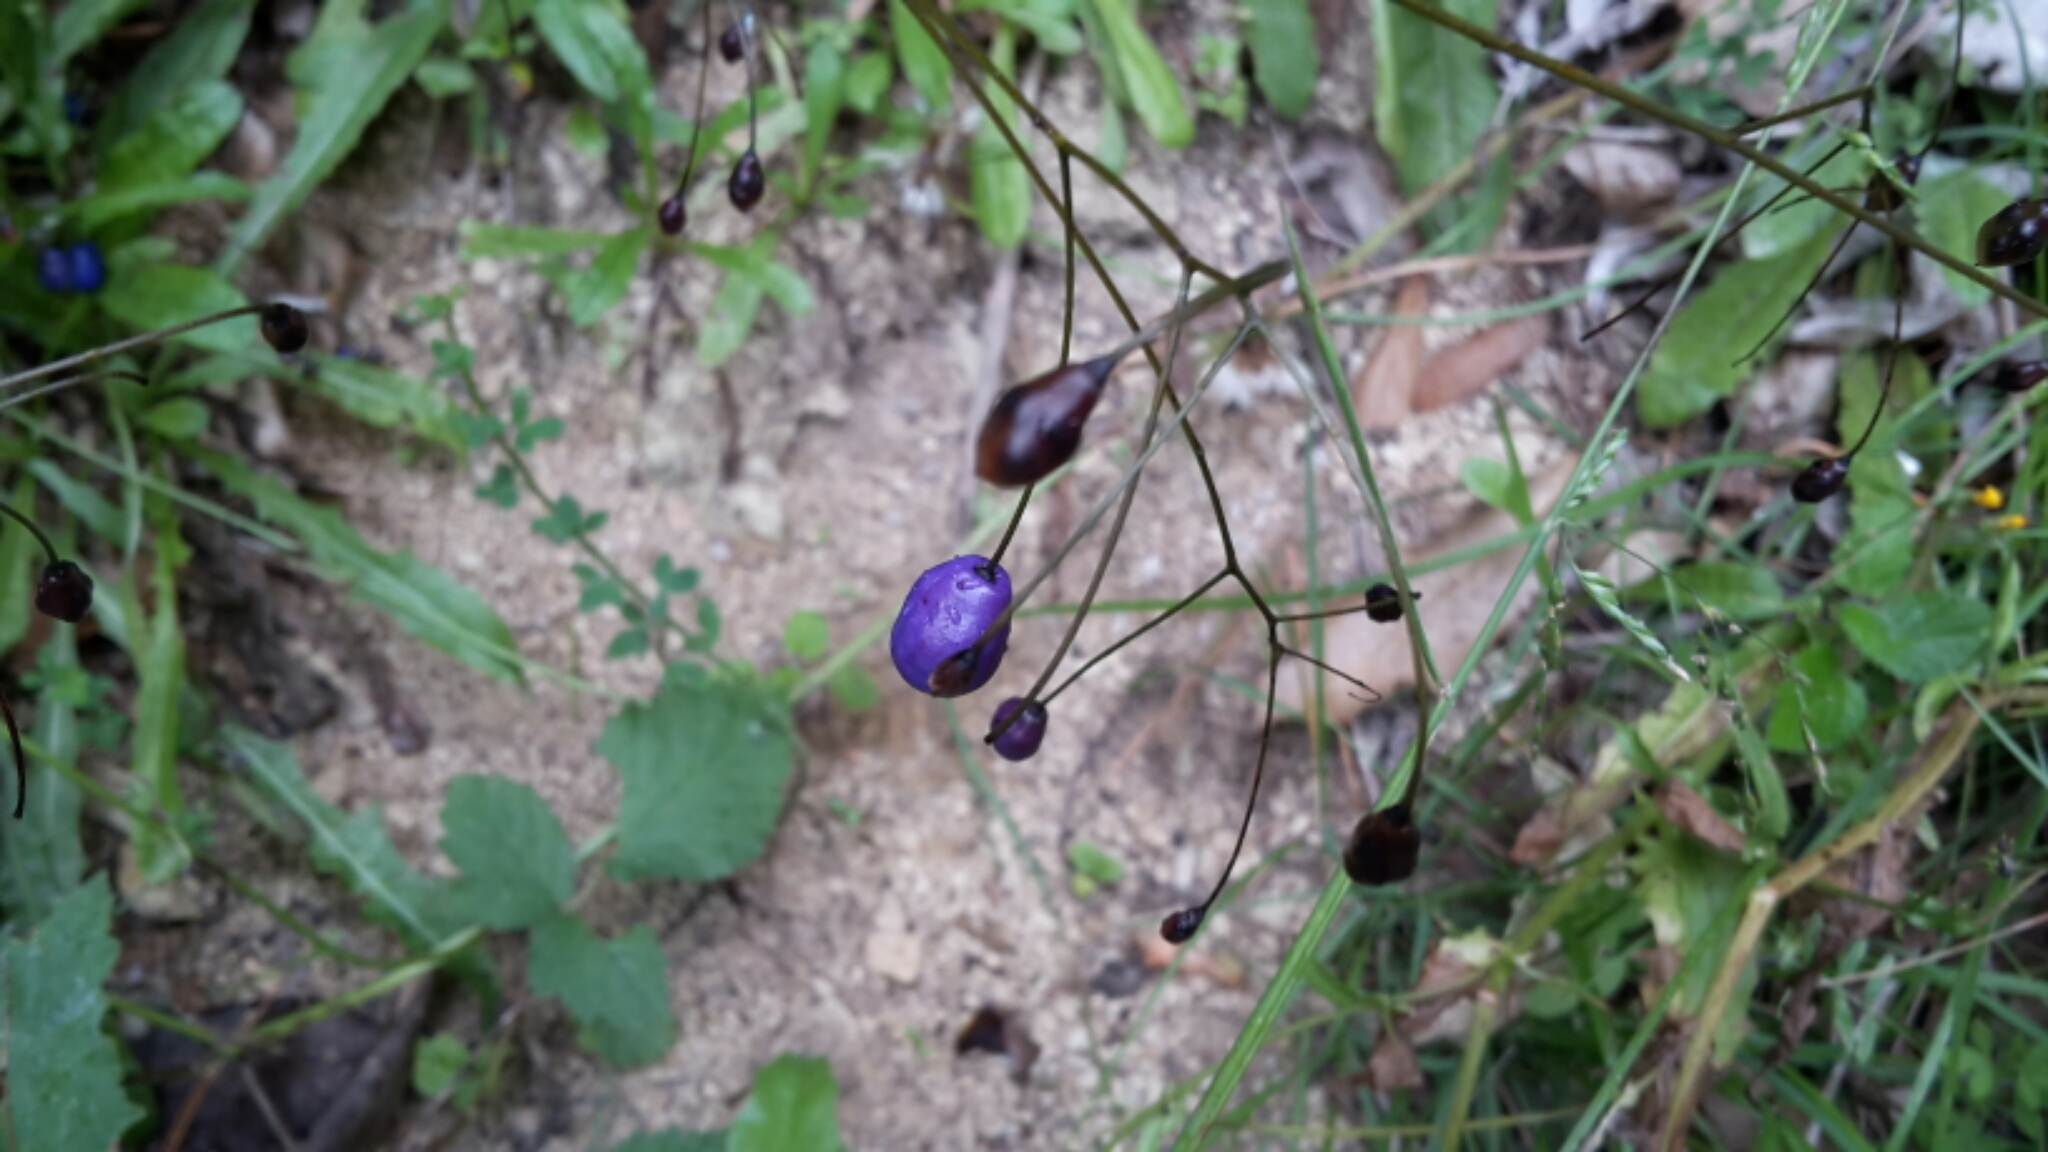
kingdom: Plantae
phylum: Tracheophyta
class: Liliopsida
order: Asparagales
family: Asphodelaceae
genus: Dianella
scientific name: Dianella nigra
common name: New zealand-blueberry
